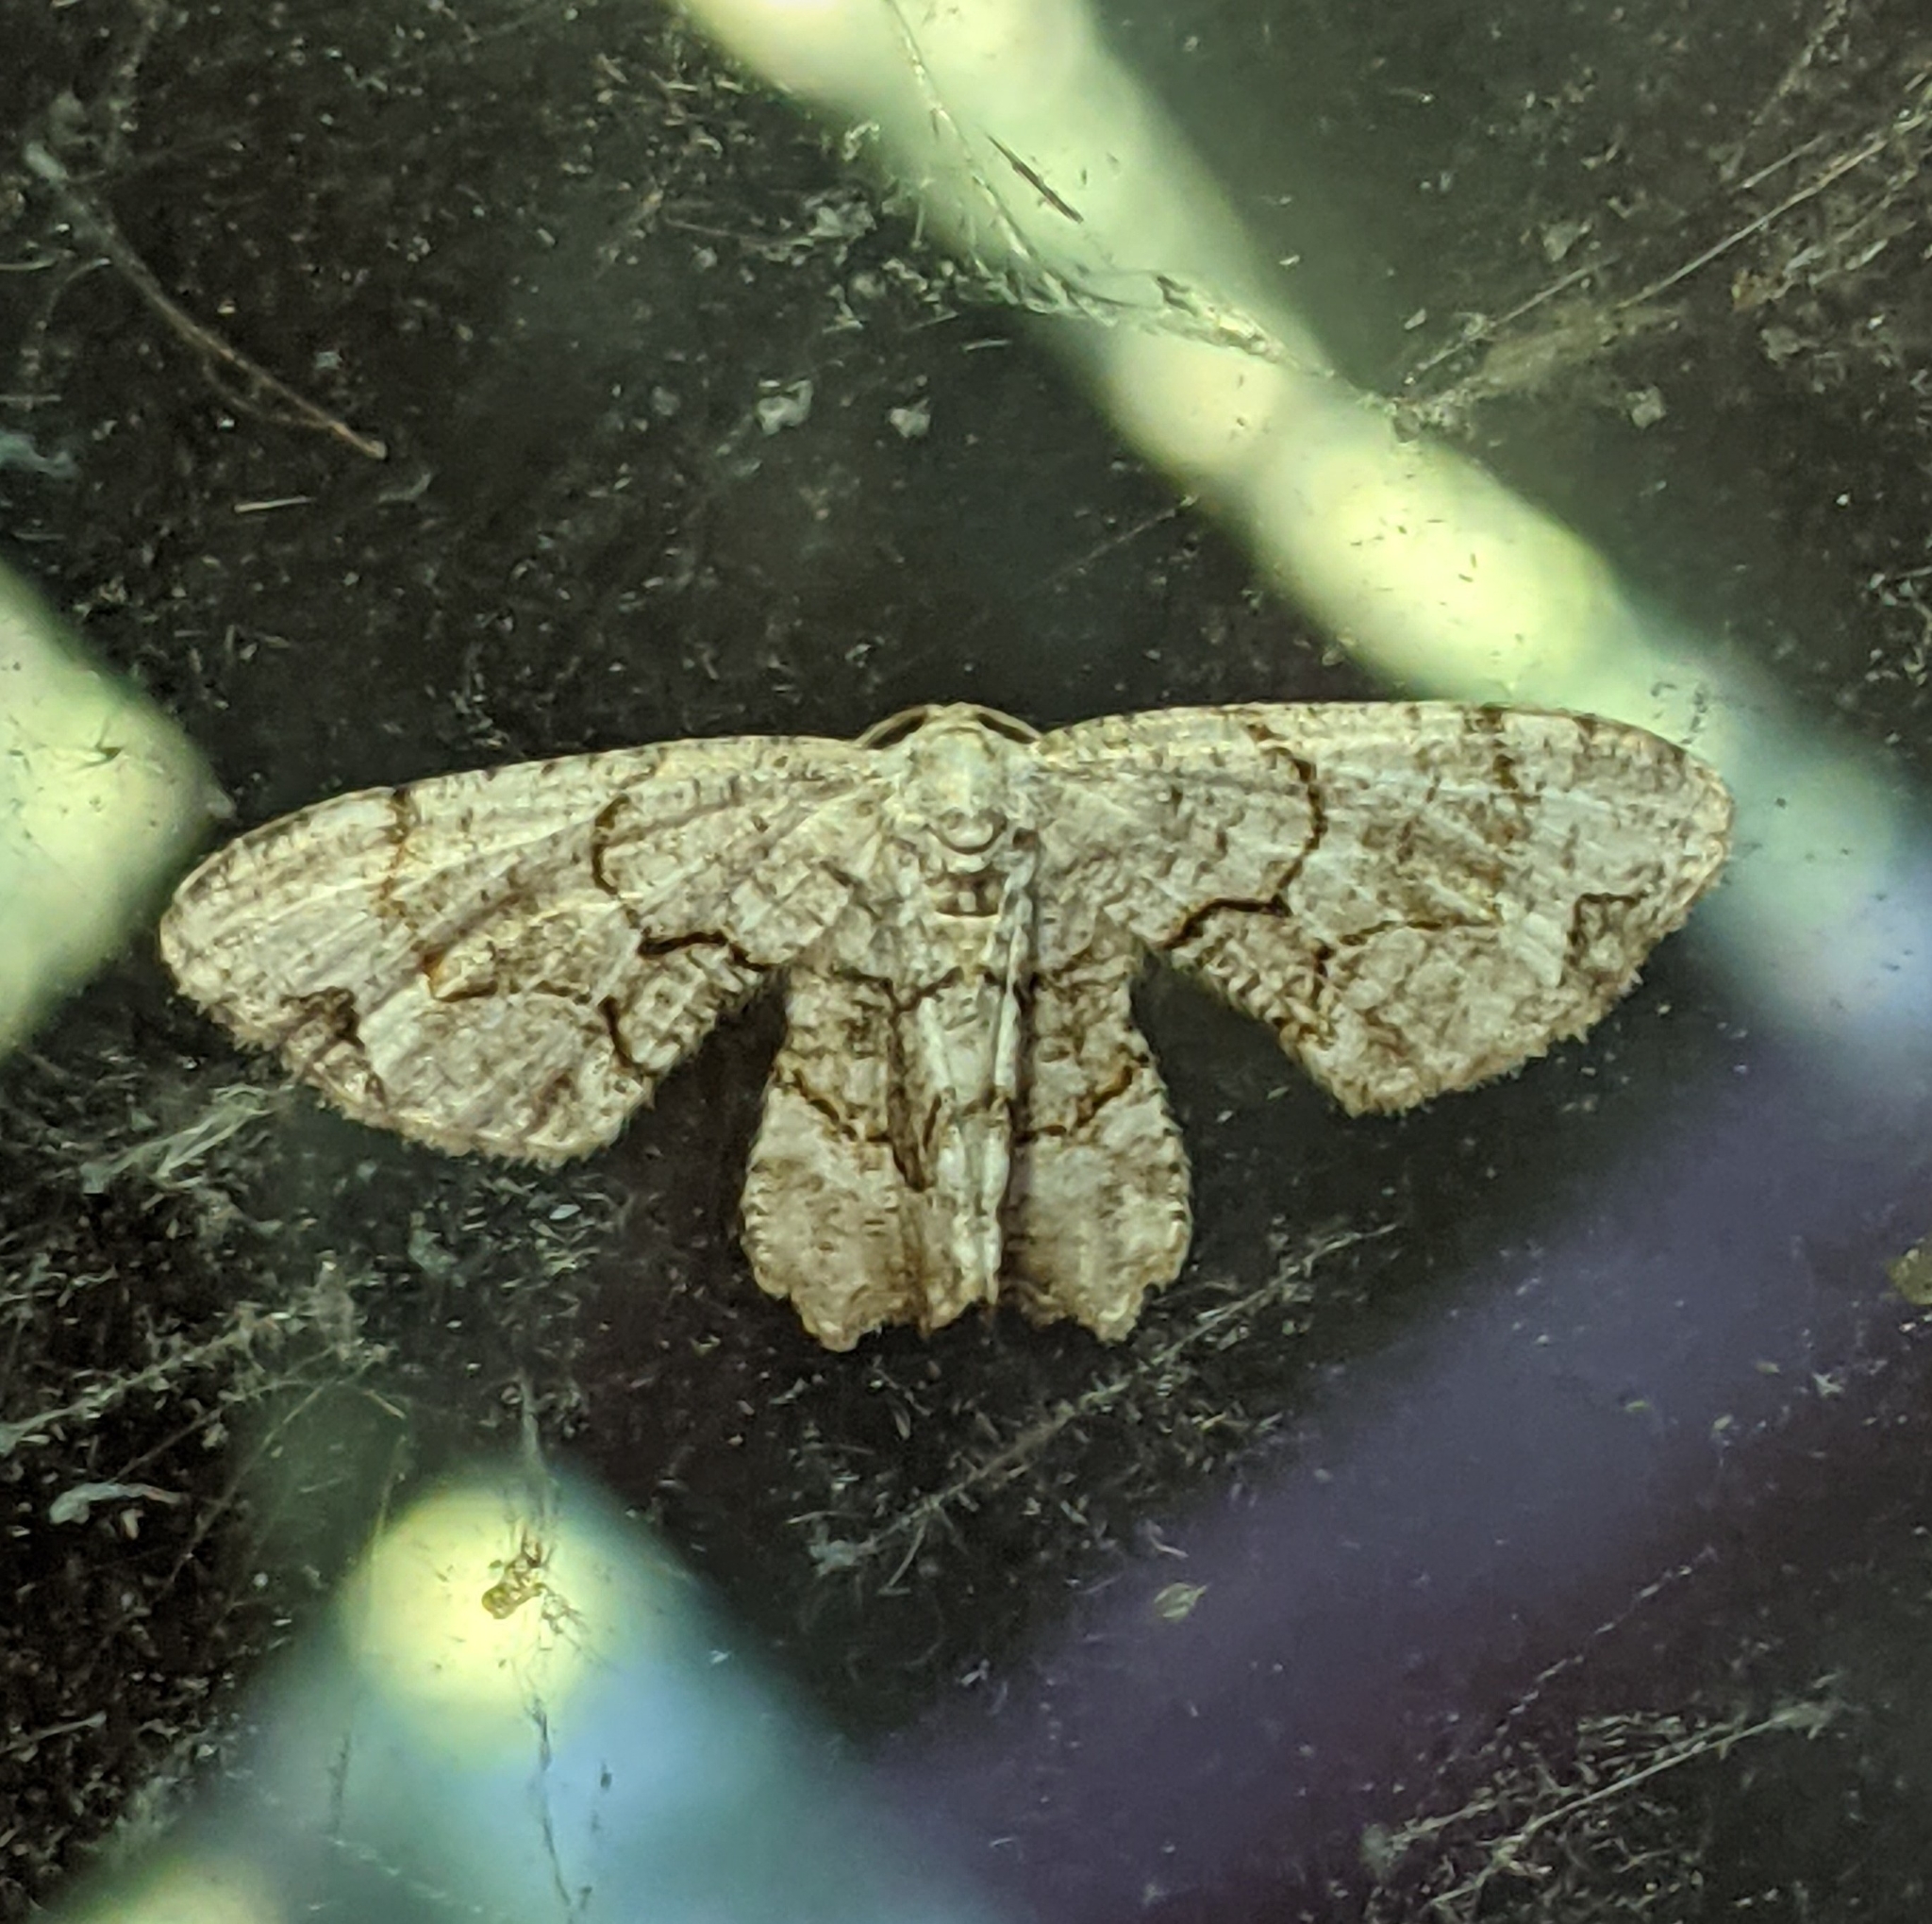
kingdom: Animalia
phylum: Arthropoda
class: Insecta
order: Lepidoptera
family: Uraniidae
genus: Epiplema
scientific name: Epiplema Callizzia amorata
